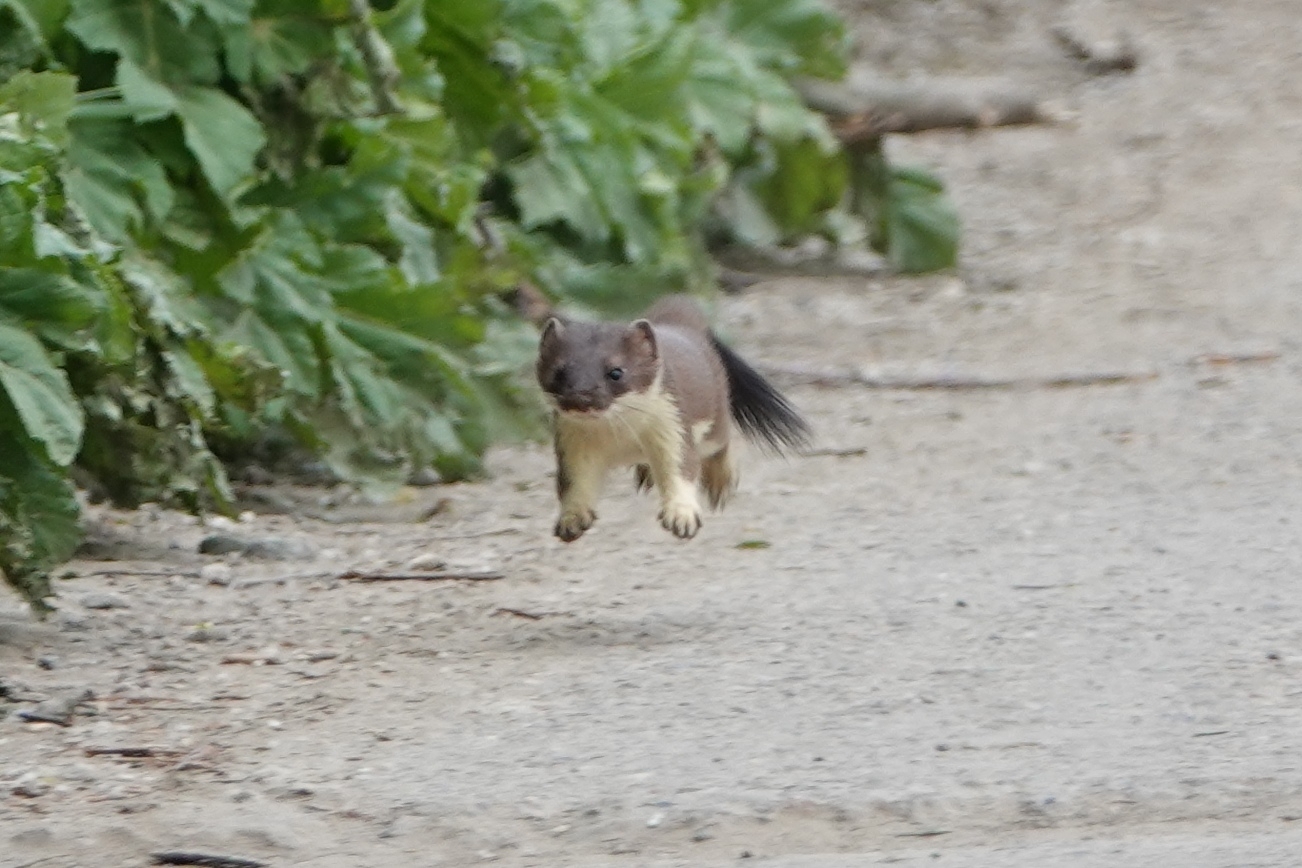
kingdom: Animalia
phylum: Chordata
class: Mammalia
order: Carnivora
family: Mustelidae
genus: Mustela
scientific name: Mustela erminea
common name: Stoat
